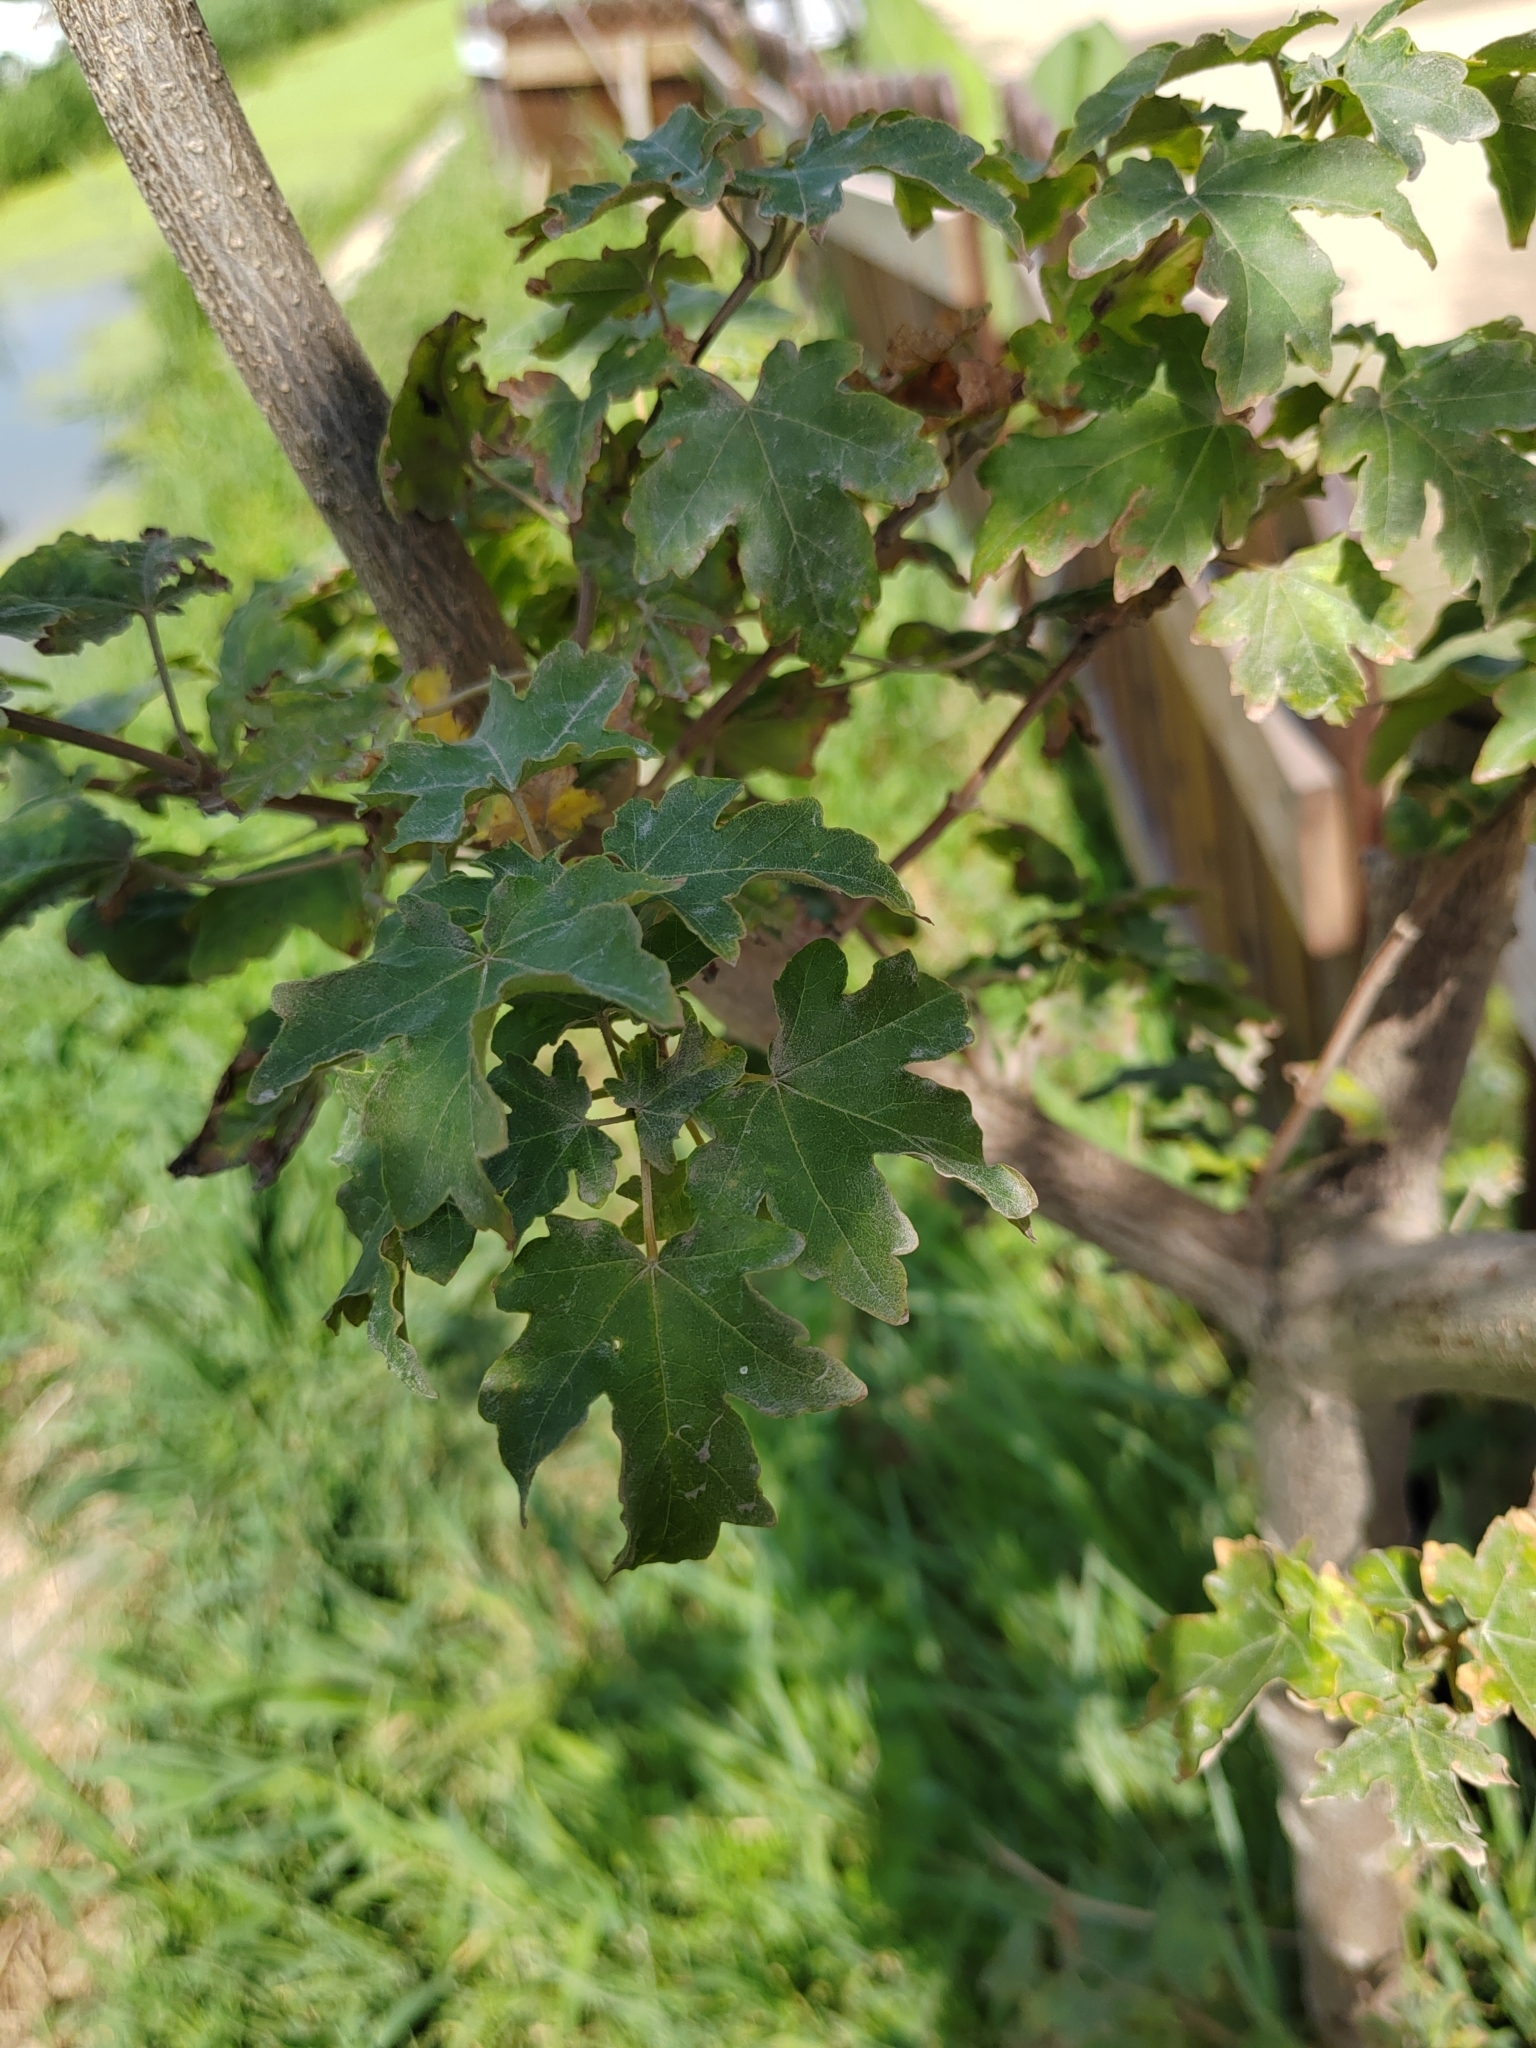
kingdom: Plantae
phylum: Tracheophyta
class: Magnoliopsida
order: Sapindales
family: Sapindaceae
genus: Acer
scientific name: Acer campestre
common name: Field maple
